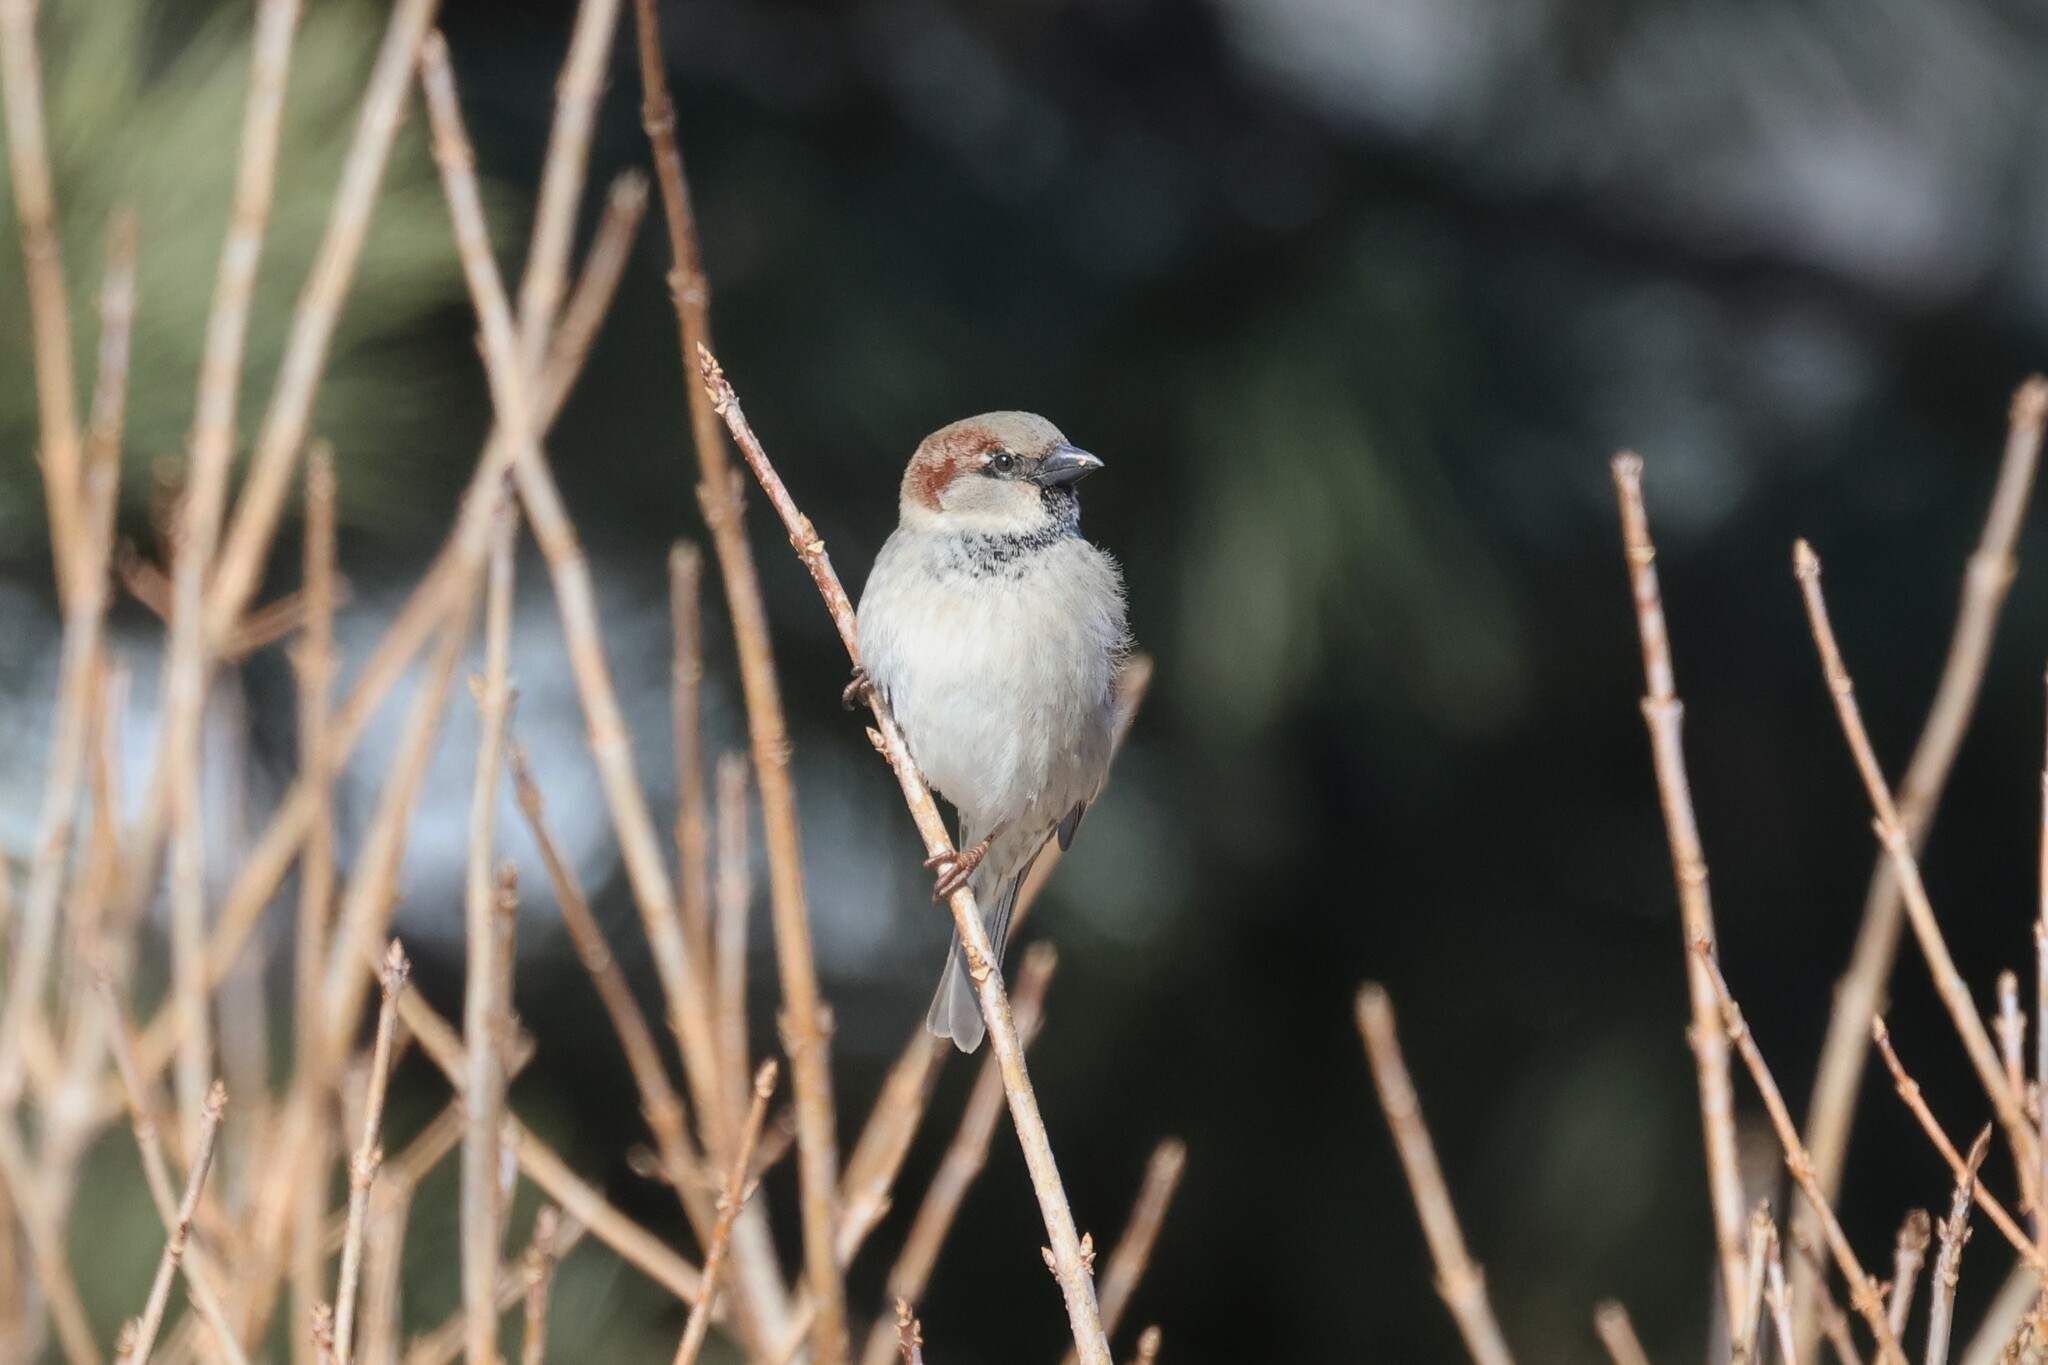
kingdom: Animalia
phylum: Chordata
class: Aves
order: Passeriformes
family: Passeridae
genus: Passer
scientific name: Passer domesticus
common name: House sparrow
